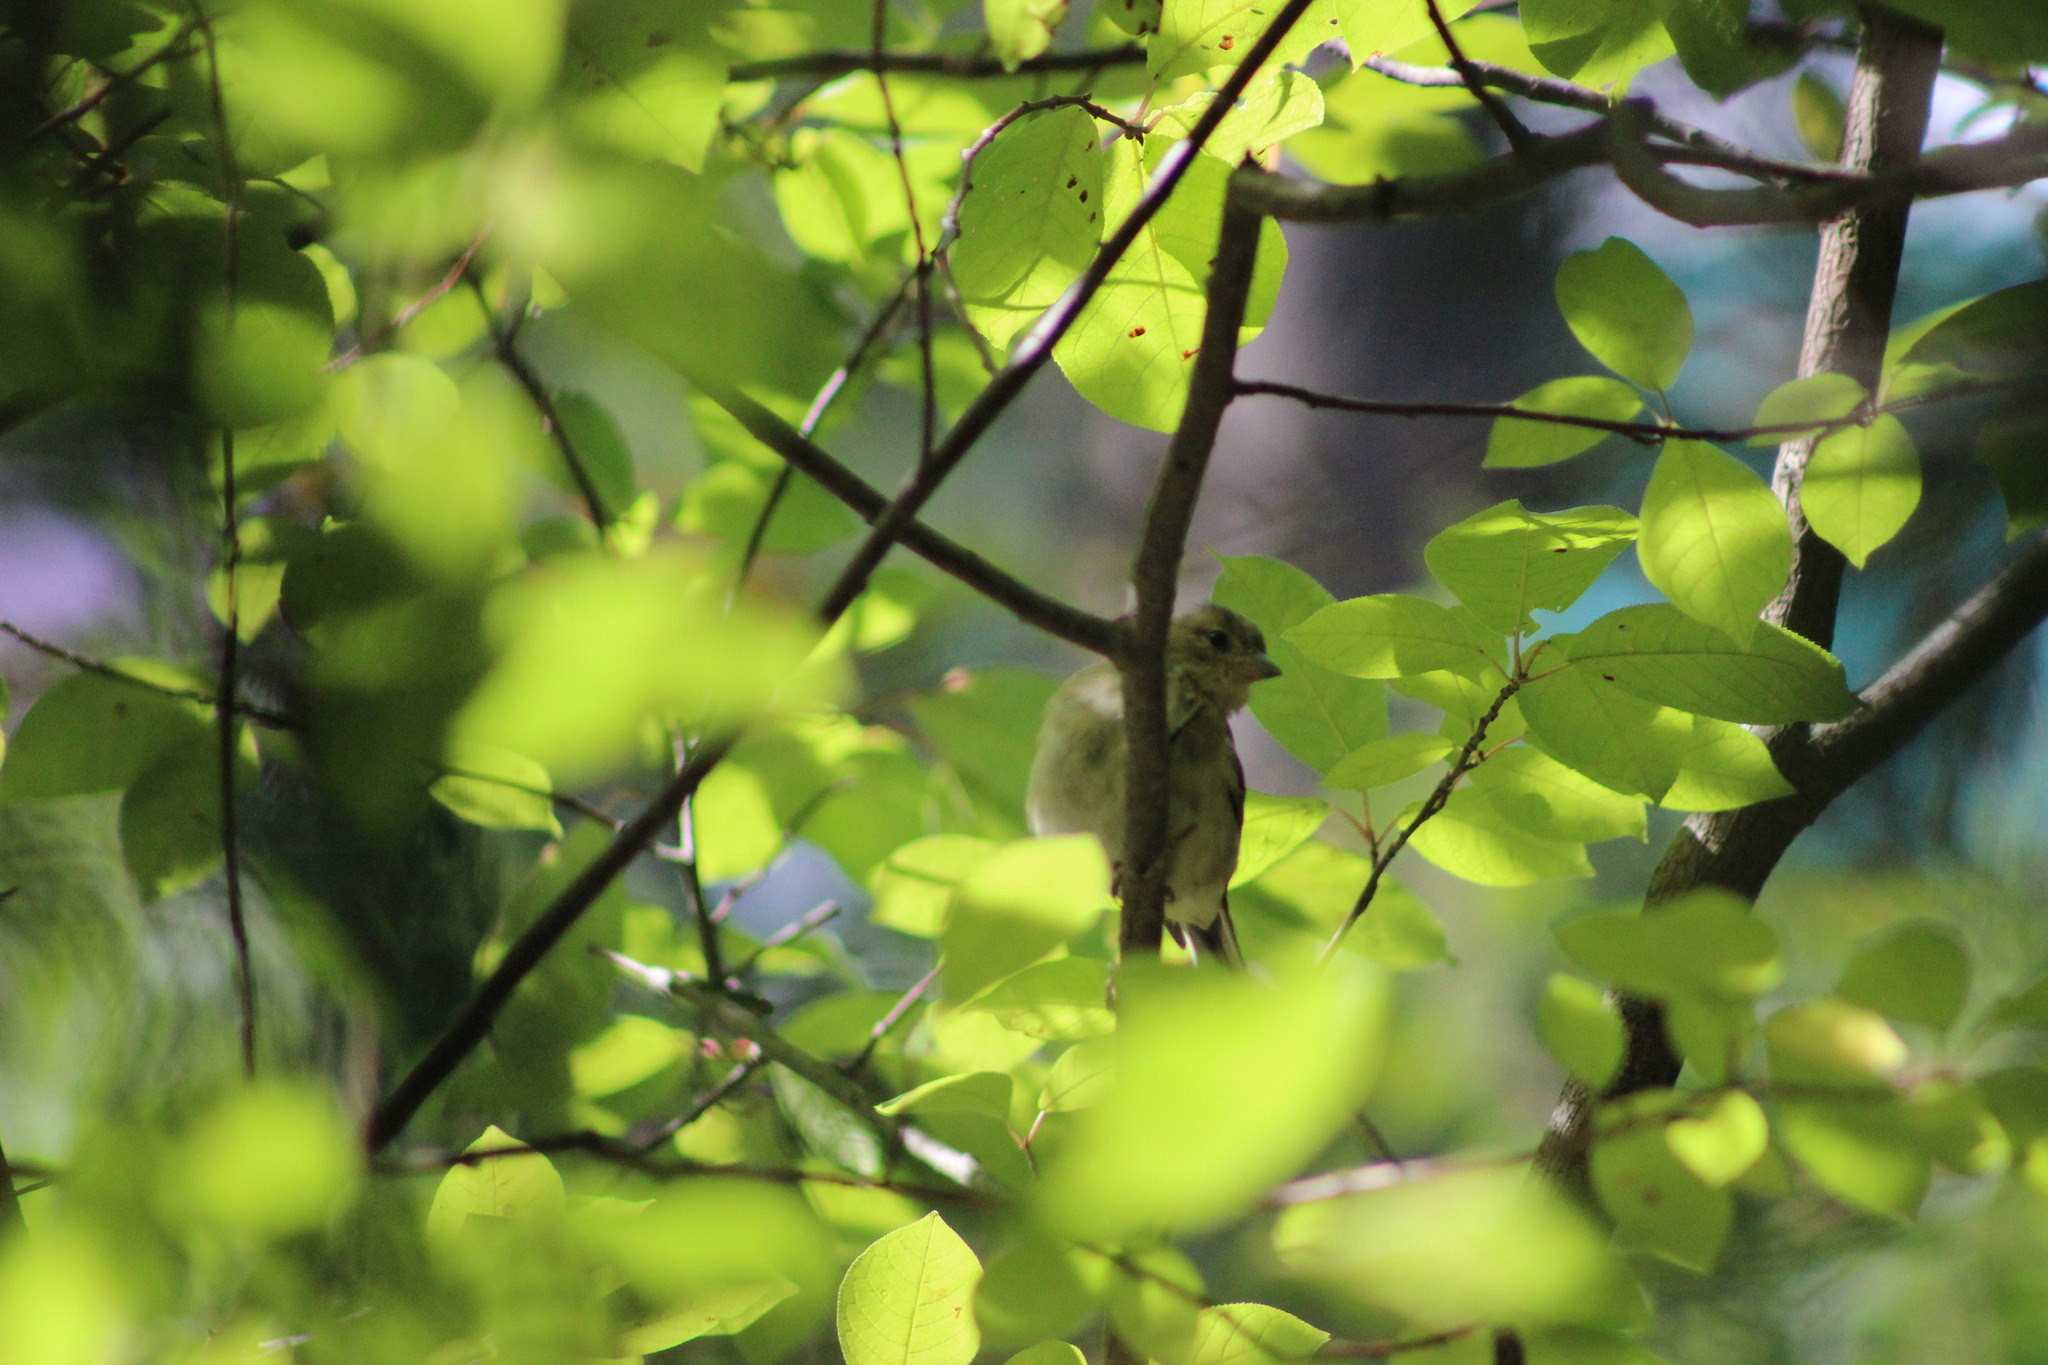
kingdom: Animalia
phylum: Chordata
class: Aves
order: Passeriformes
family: Fringillidae
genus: Fringilla
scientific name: Fringilla coelebs
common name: Common chaffinch
